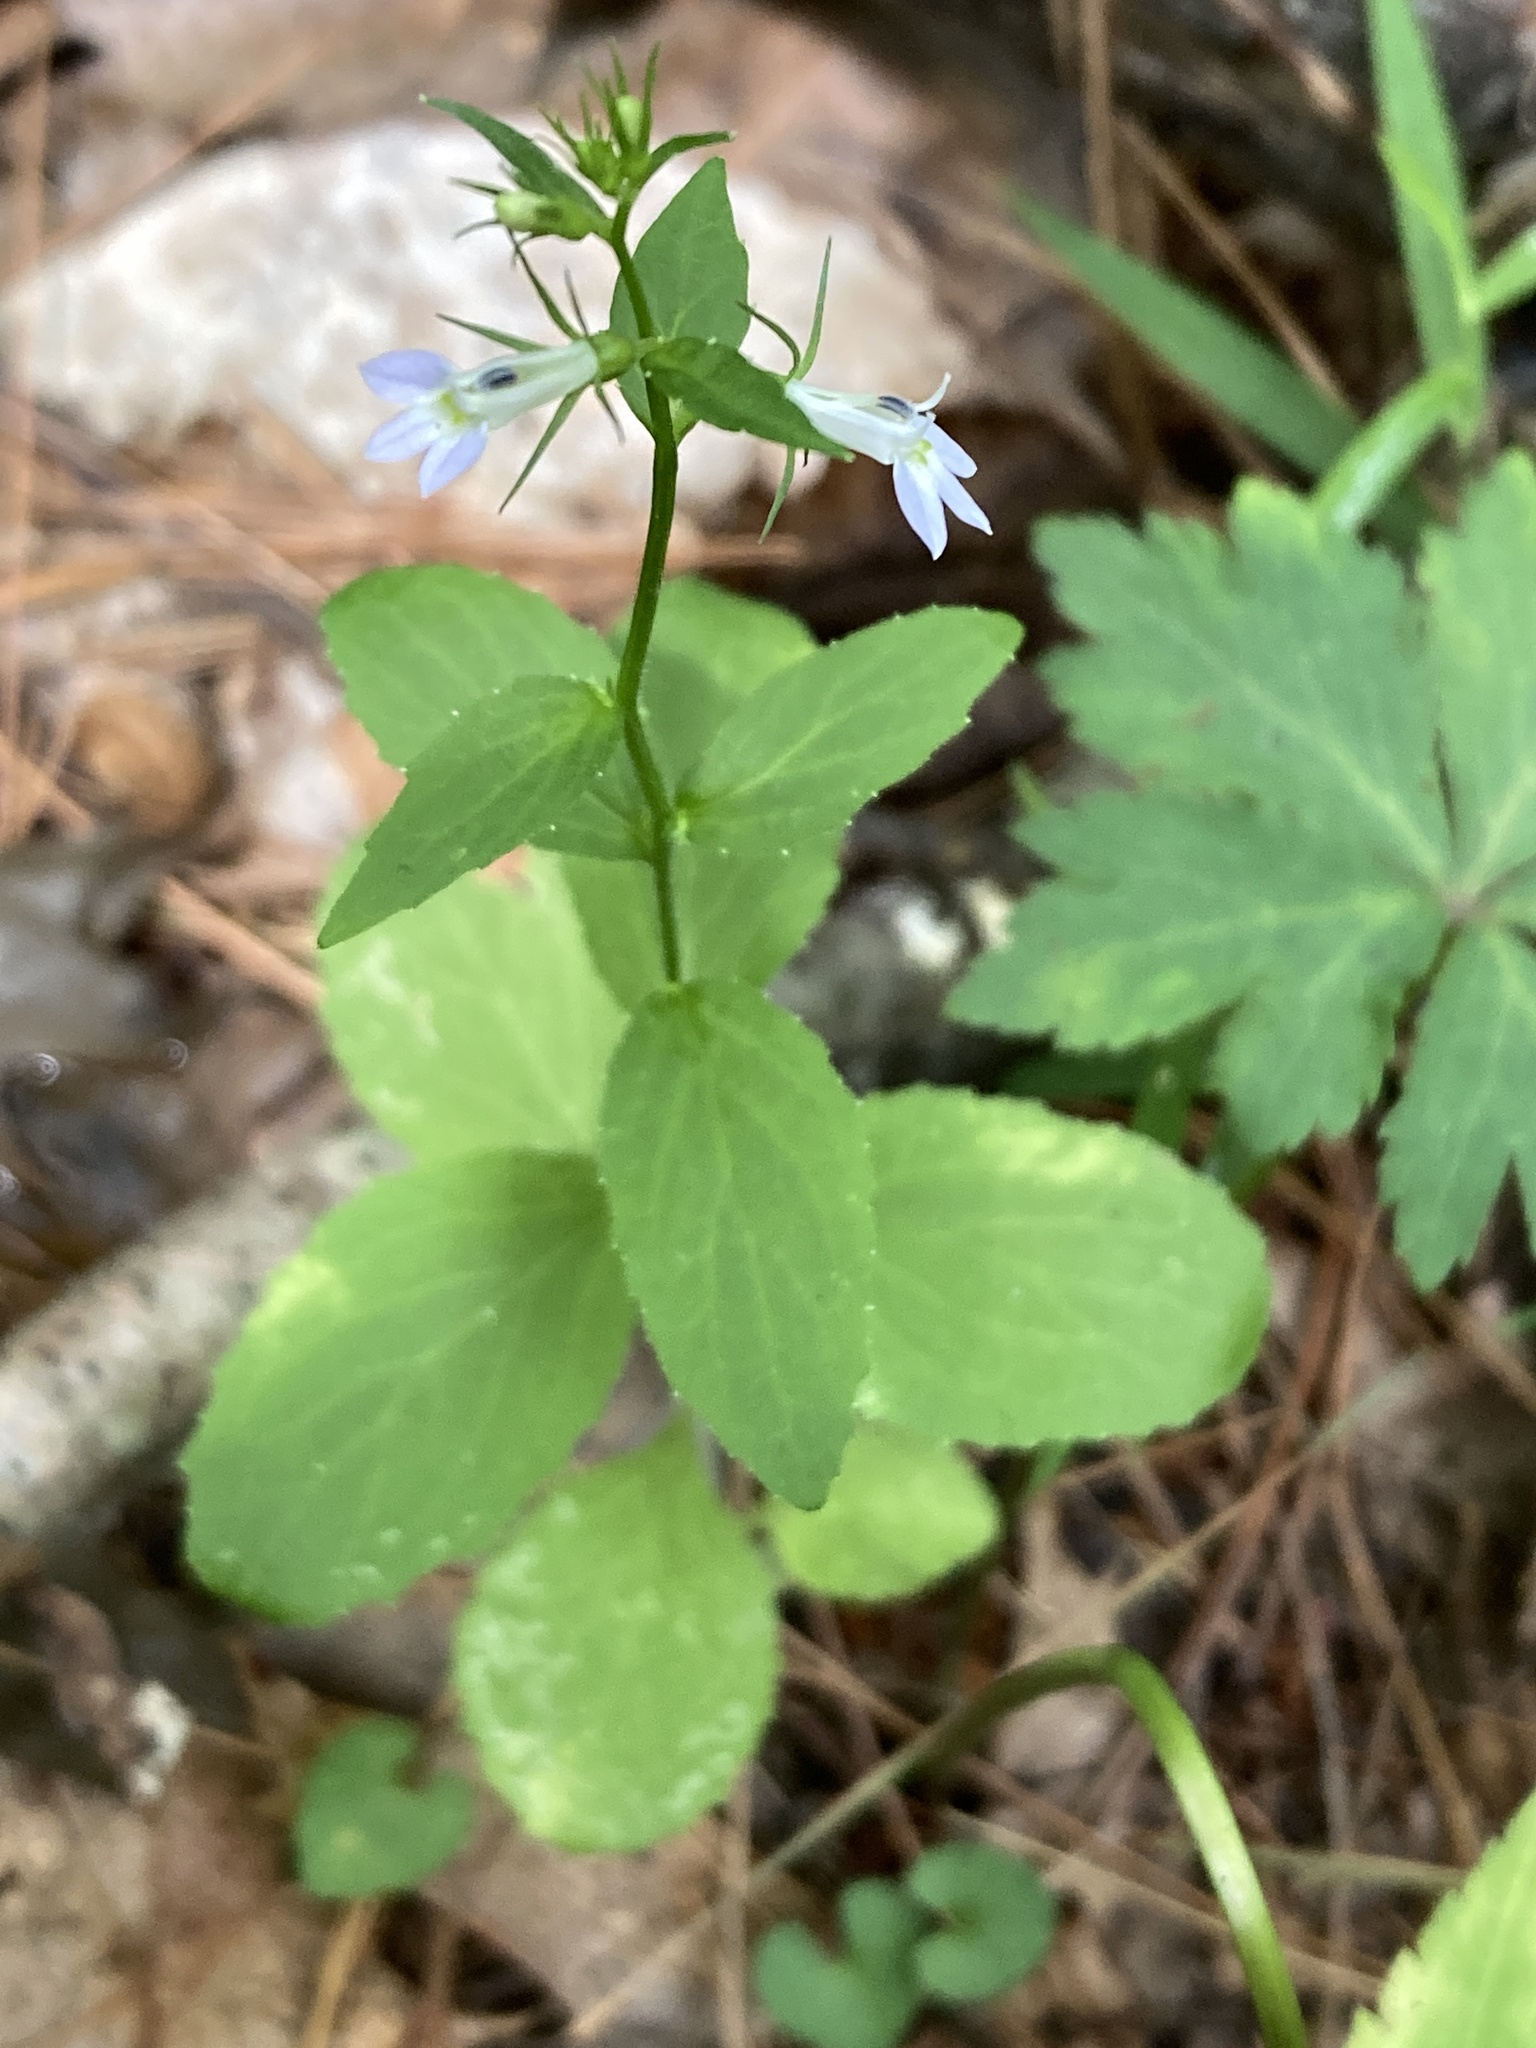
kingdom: Plantae
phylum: Tracheophyta
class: Magnoliopsida
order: Asterales
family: Campanulaceae
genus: Lobelia
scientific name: Lobelia inflata
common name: Indian tobacco
